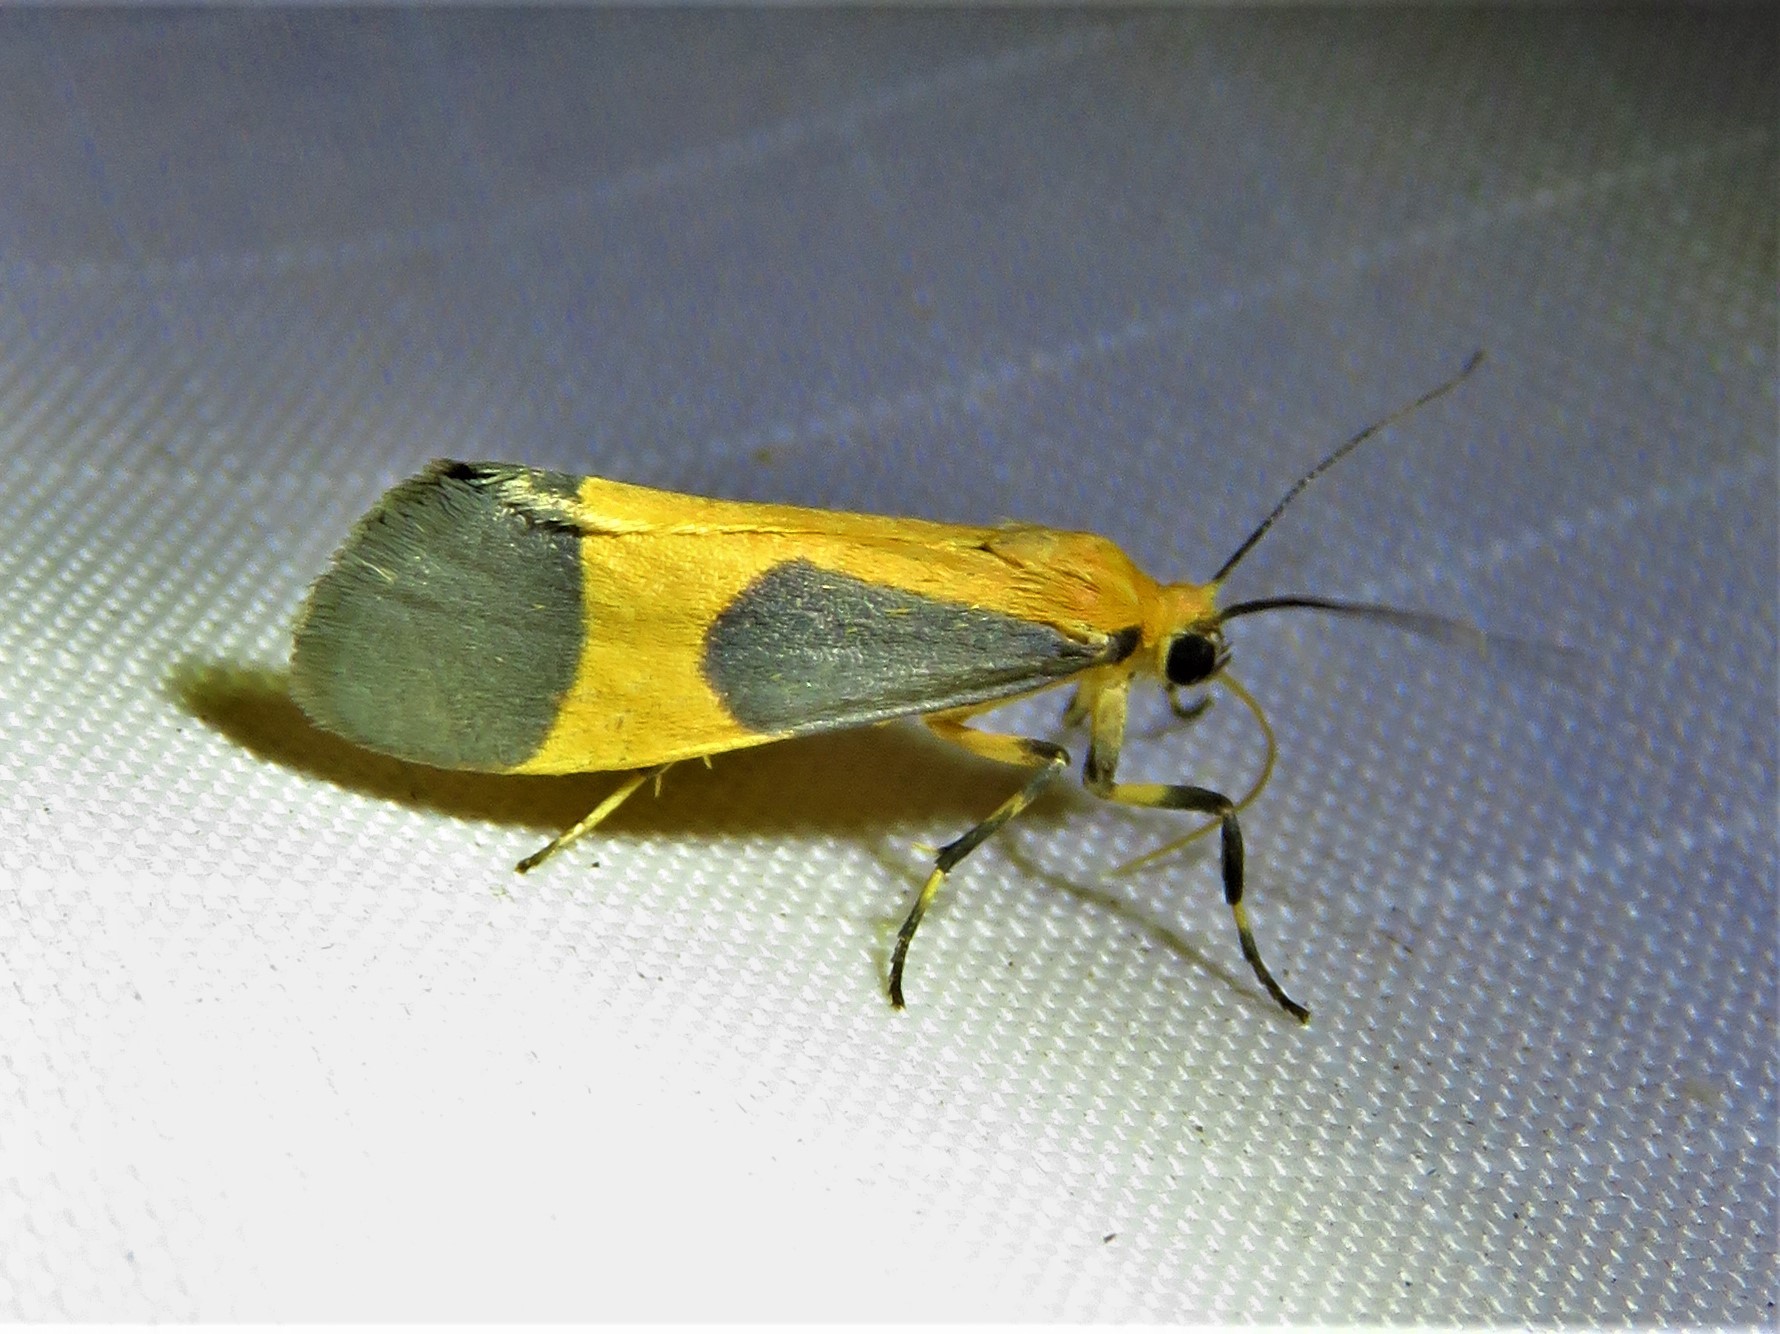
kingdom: Animalia
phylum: Arthropoda
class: Insecta
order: Lepidoptera
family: Erebidae
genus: Cisthene
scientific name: Cisthene picta
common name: Pictured lichen moth
